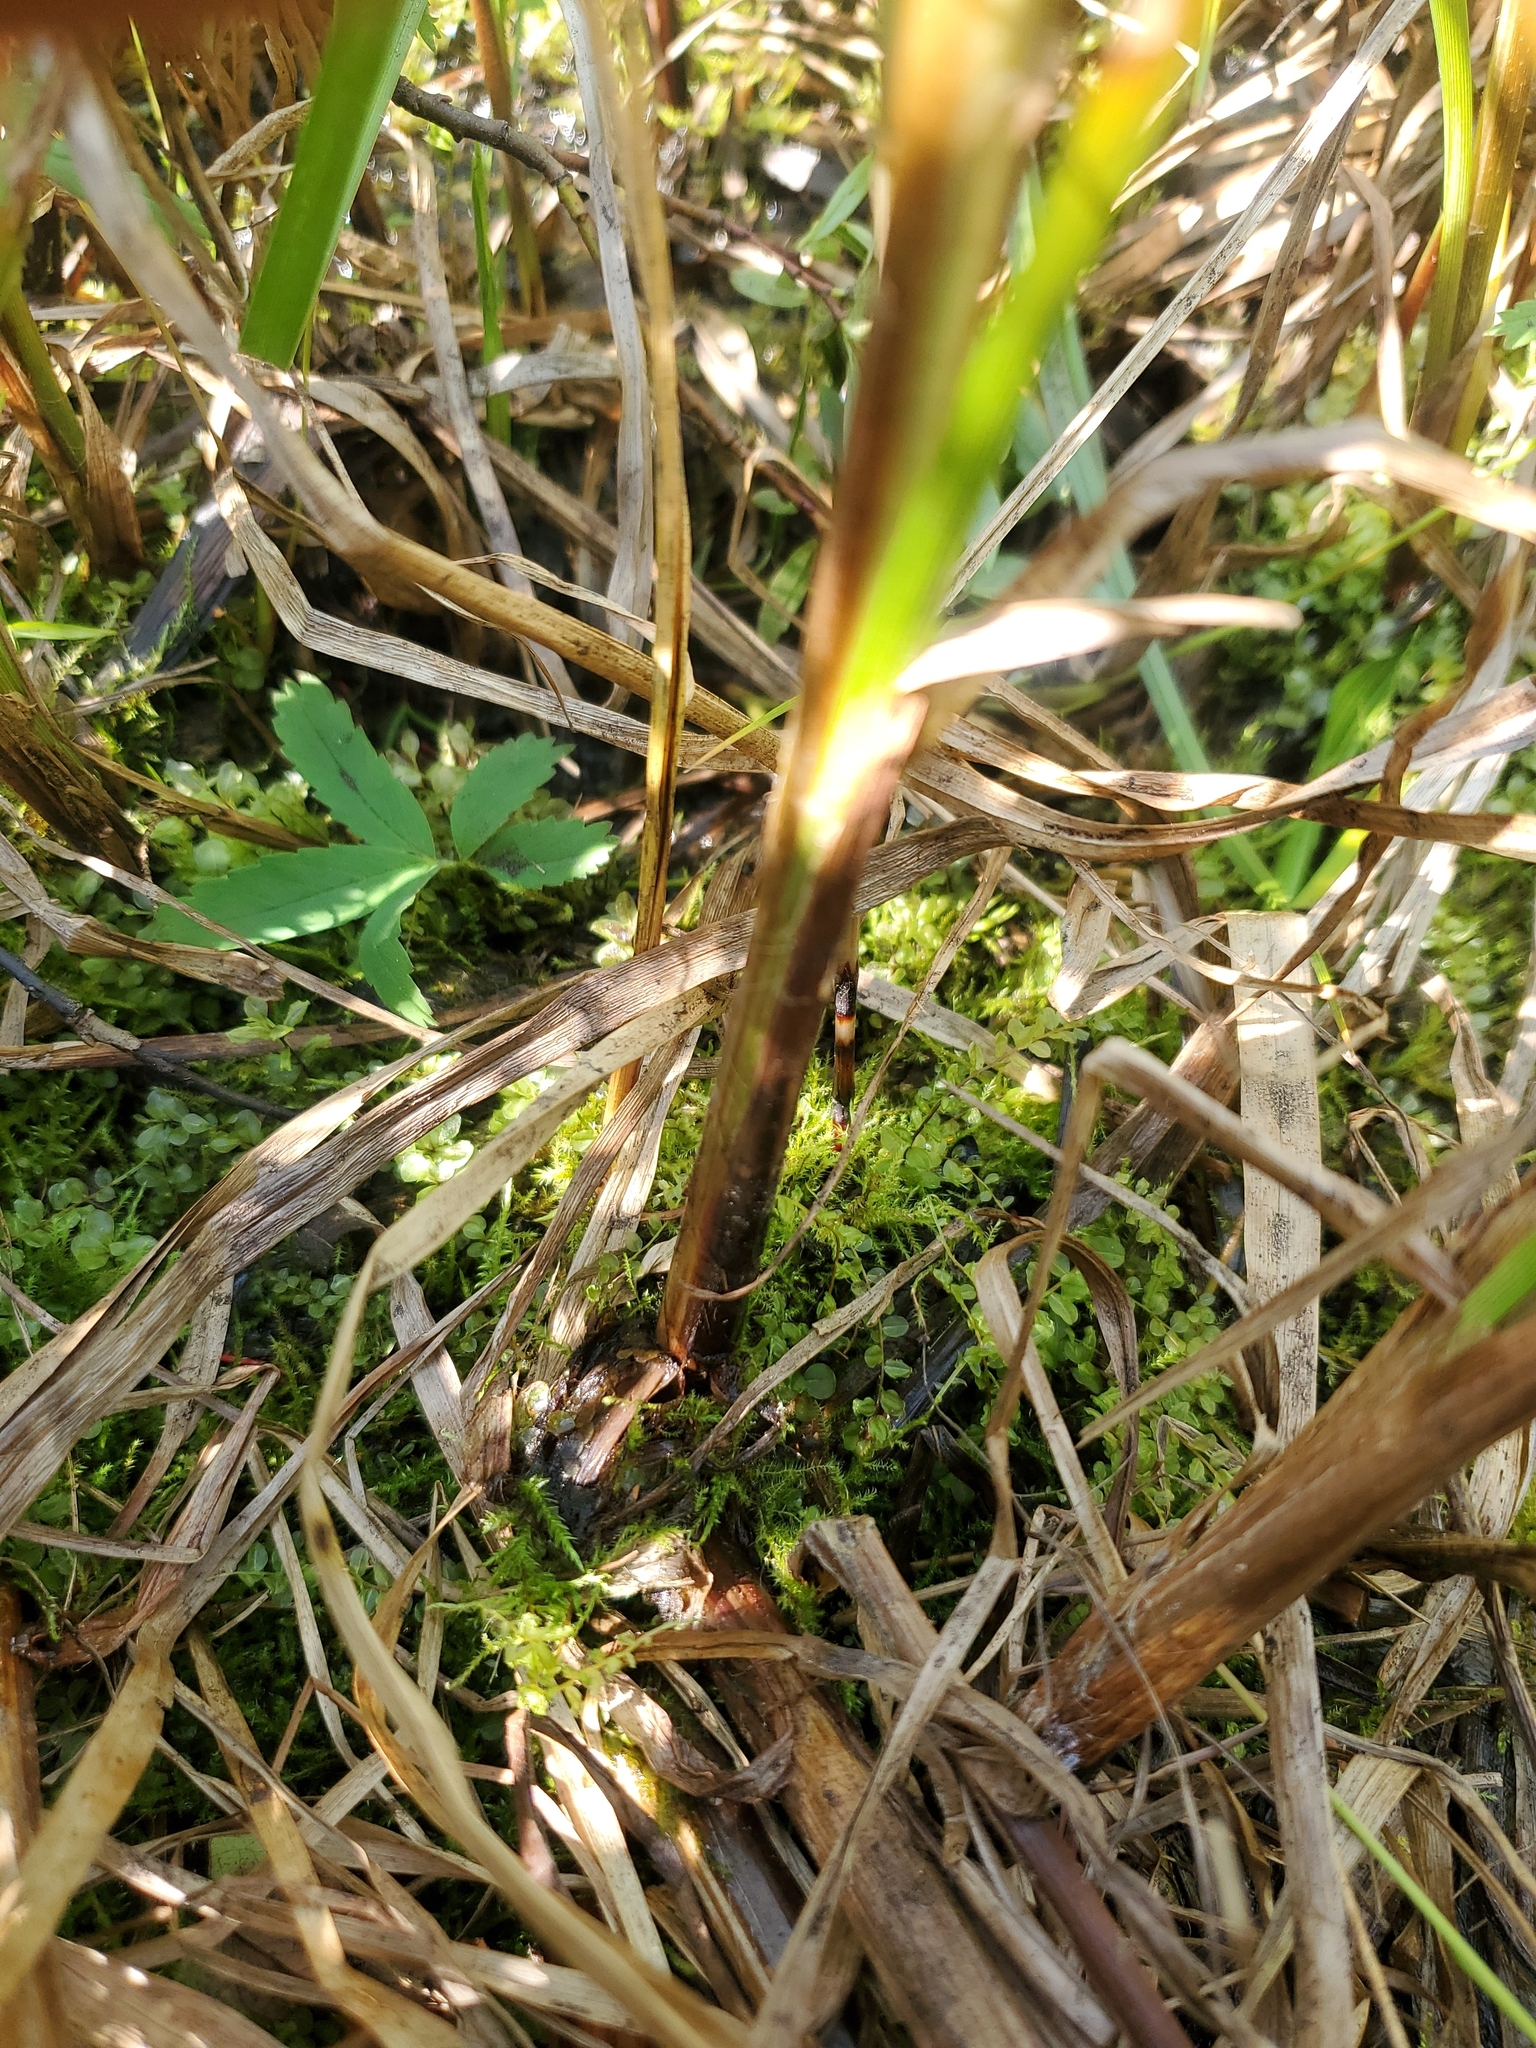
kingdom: Plantae
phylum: Tracheophyta
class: Liliopsida
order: Poales
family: Cyperaceae
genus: Carex
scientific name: Carex utriculata
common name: Beaked sedge
